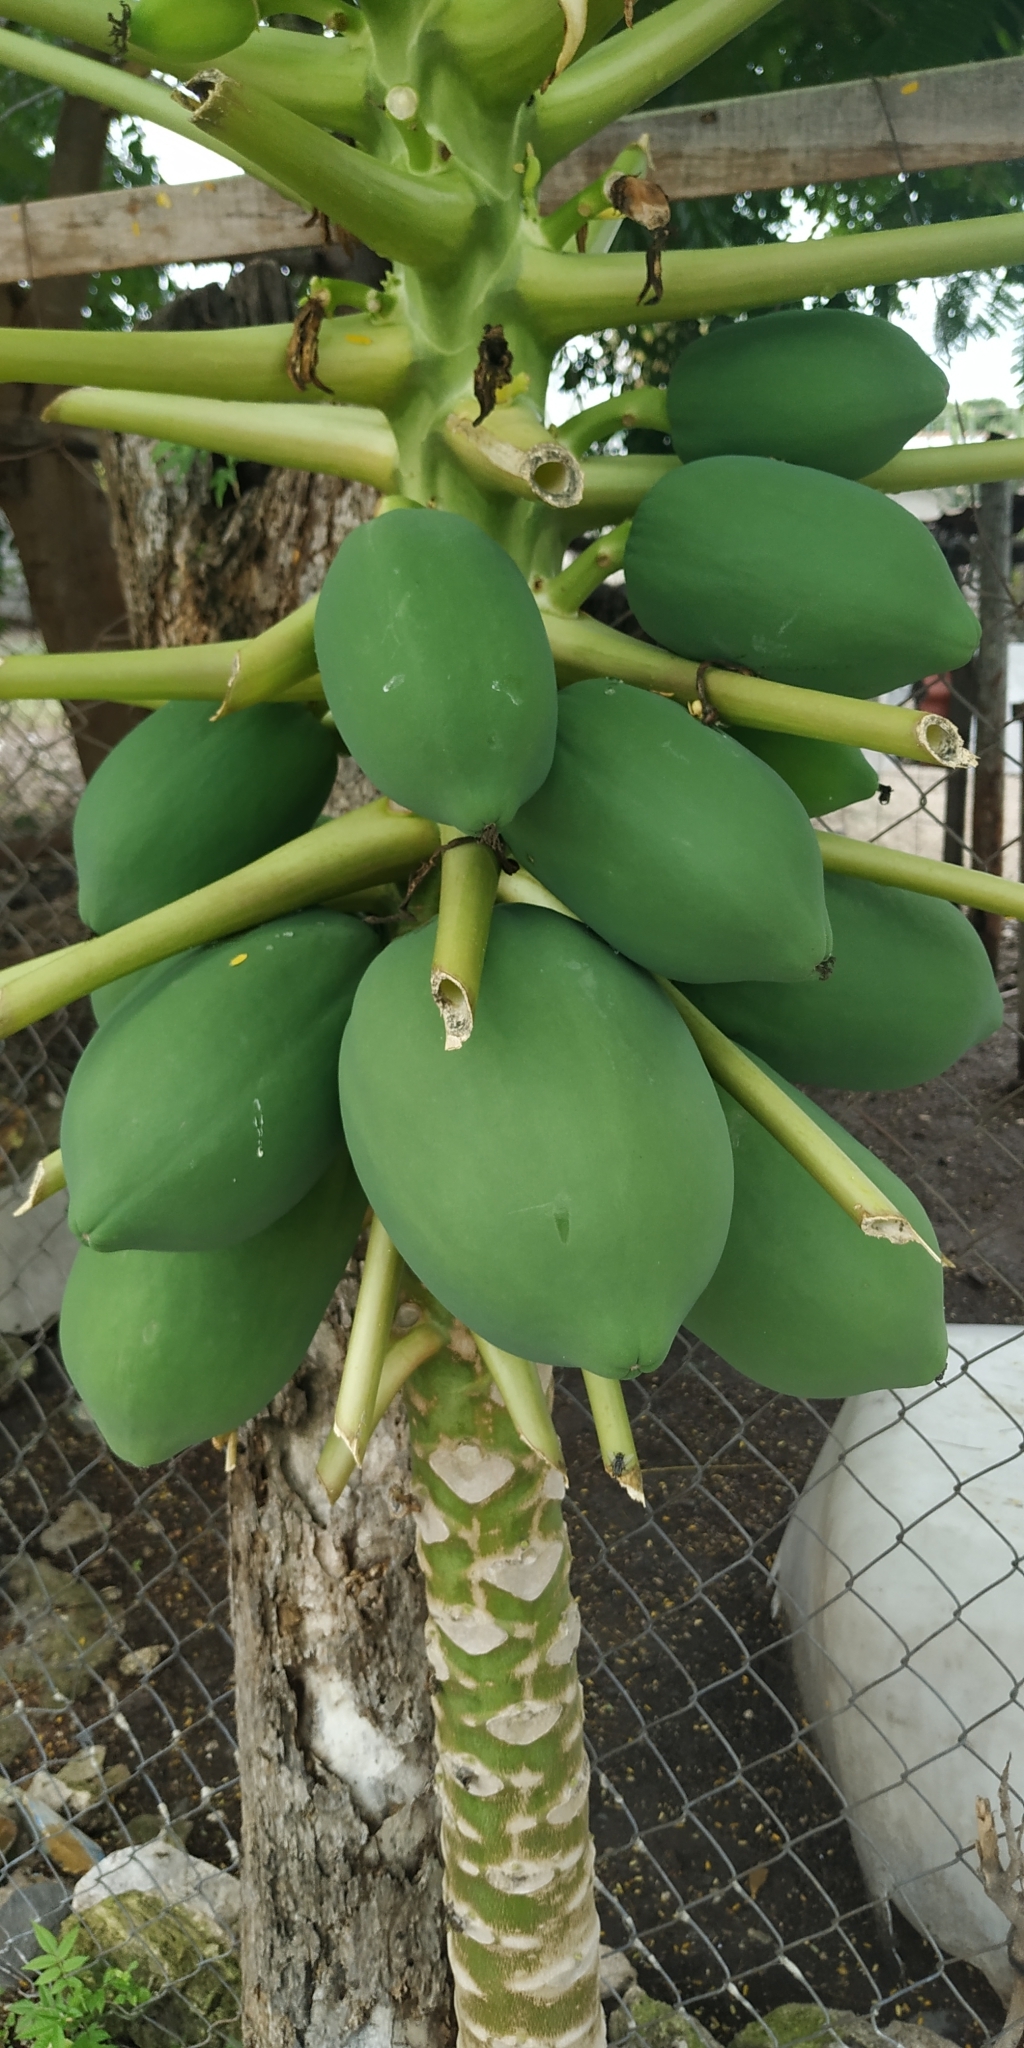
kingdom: Plantae
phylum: Tracheophyta
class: Magnoliopsida
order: Brassicales
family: Caricaceae
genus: Carica
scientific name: Carica papaya
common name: Papaya
